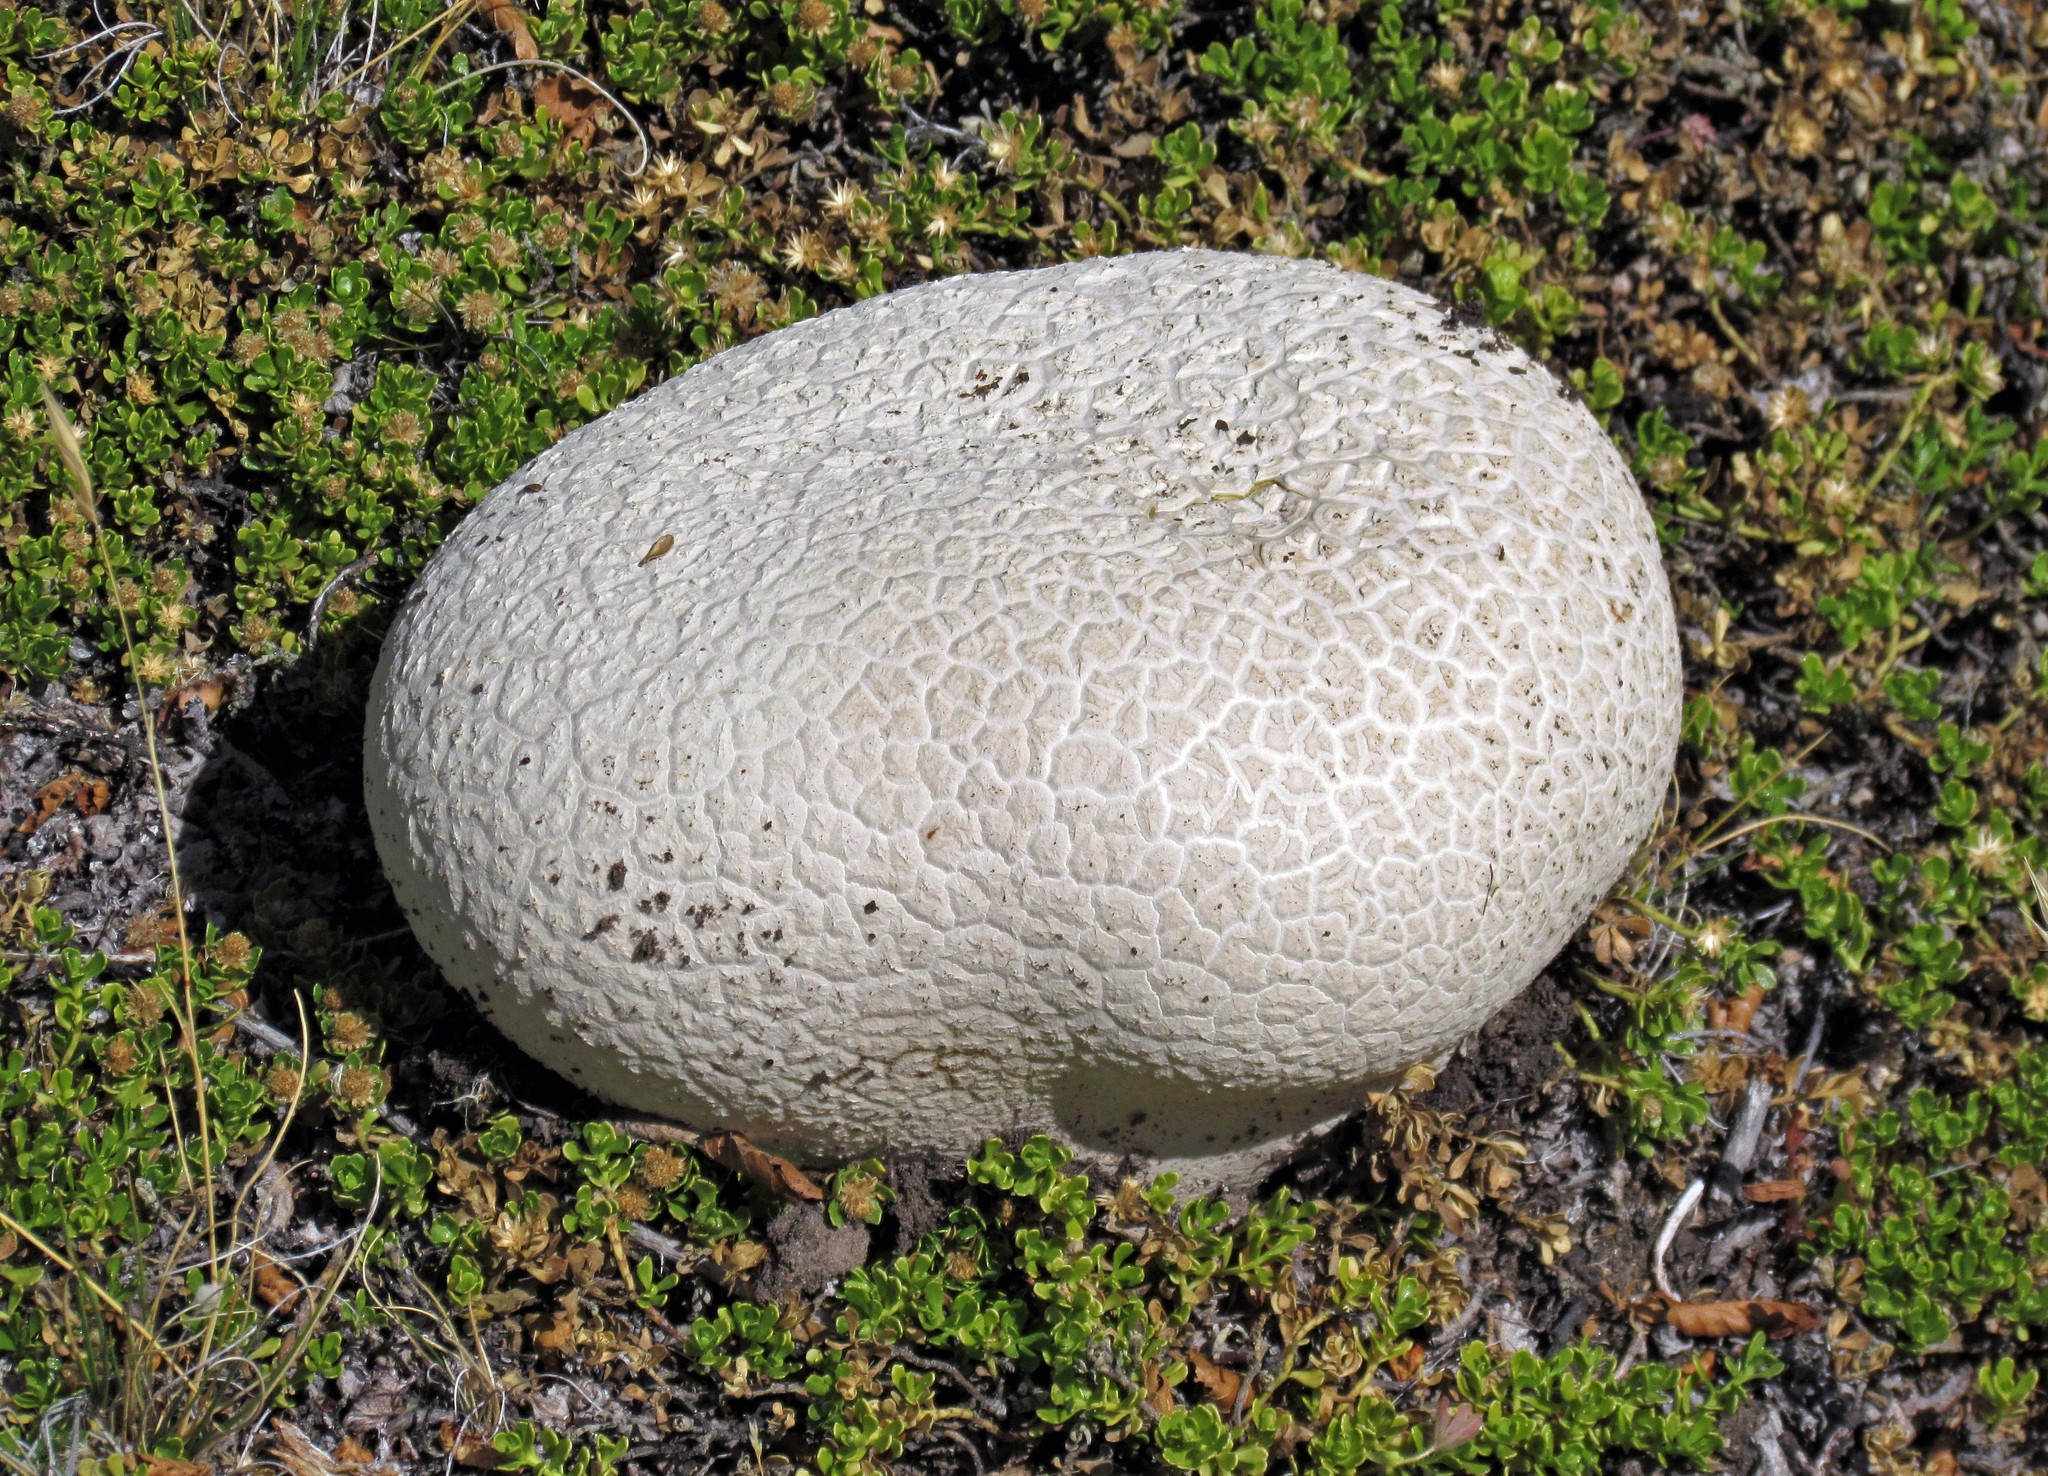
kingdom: Fungi
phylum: Basidiomycota
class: Agaricomycetes
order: Agaricales
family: Lycoperdaceae
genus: Calvatia
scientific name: Calvatia cyathiformis
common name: Purple-spored puffball
